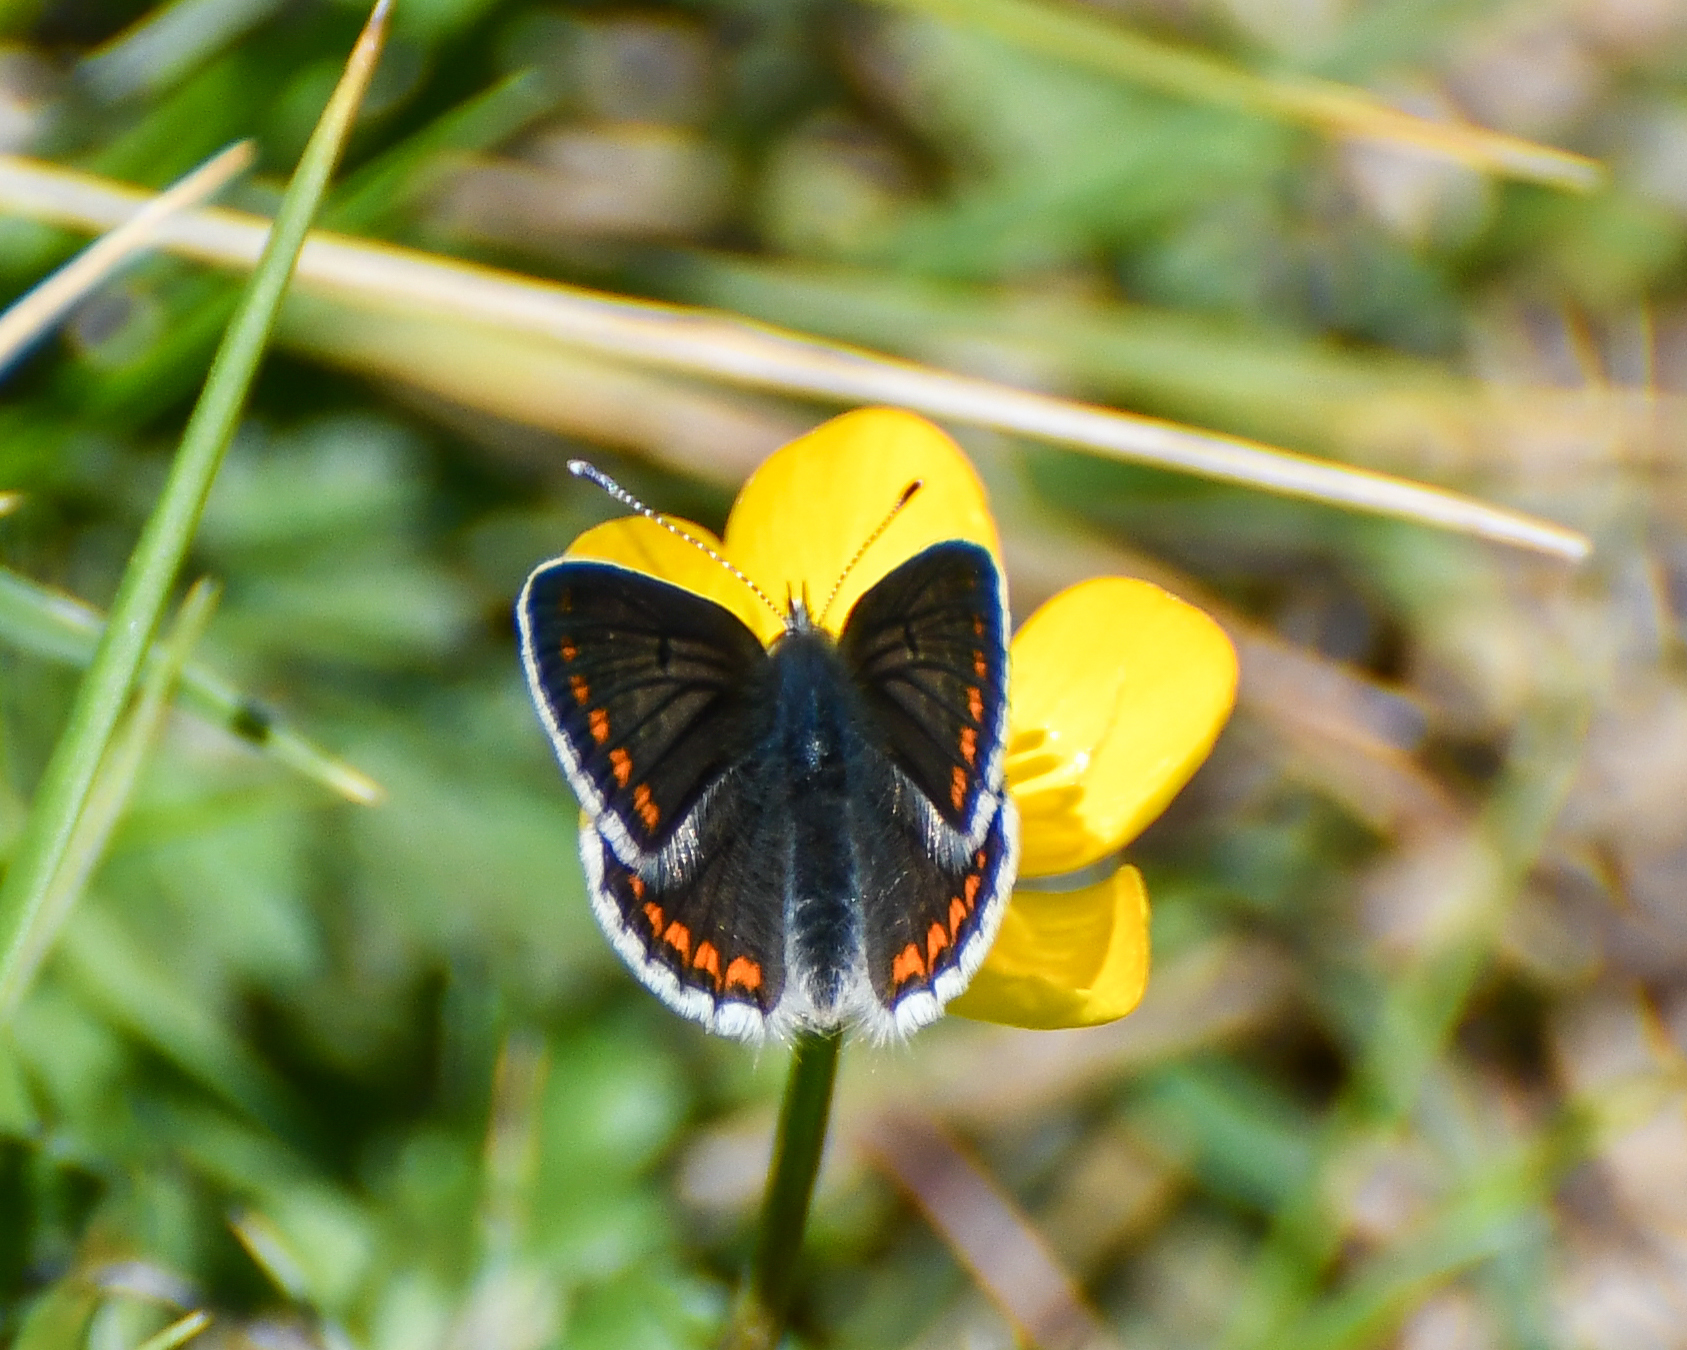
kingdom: Animalia
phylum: Arthropoda
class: Insecta
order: Lepidoptera
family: Lycaenidae
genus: Aricia
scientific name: Aricia agestis
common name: Brown argus
